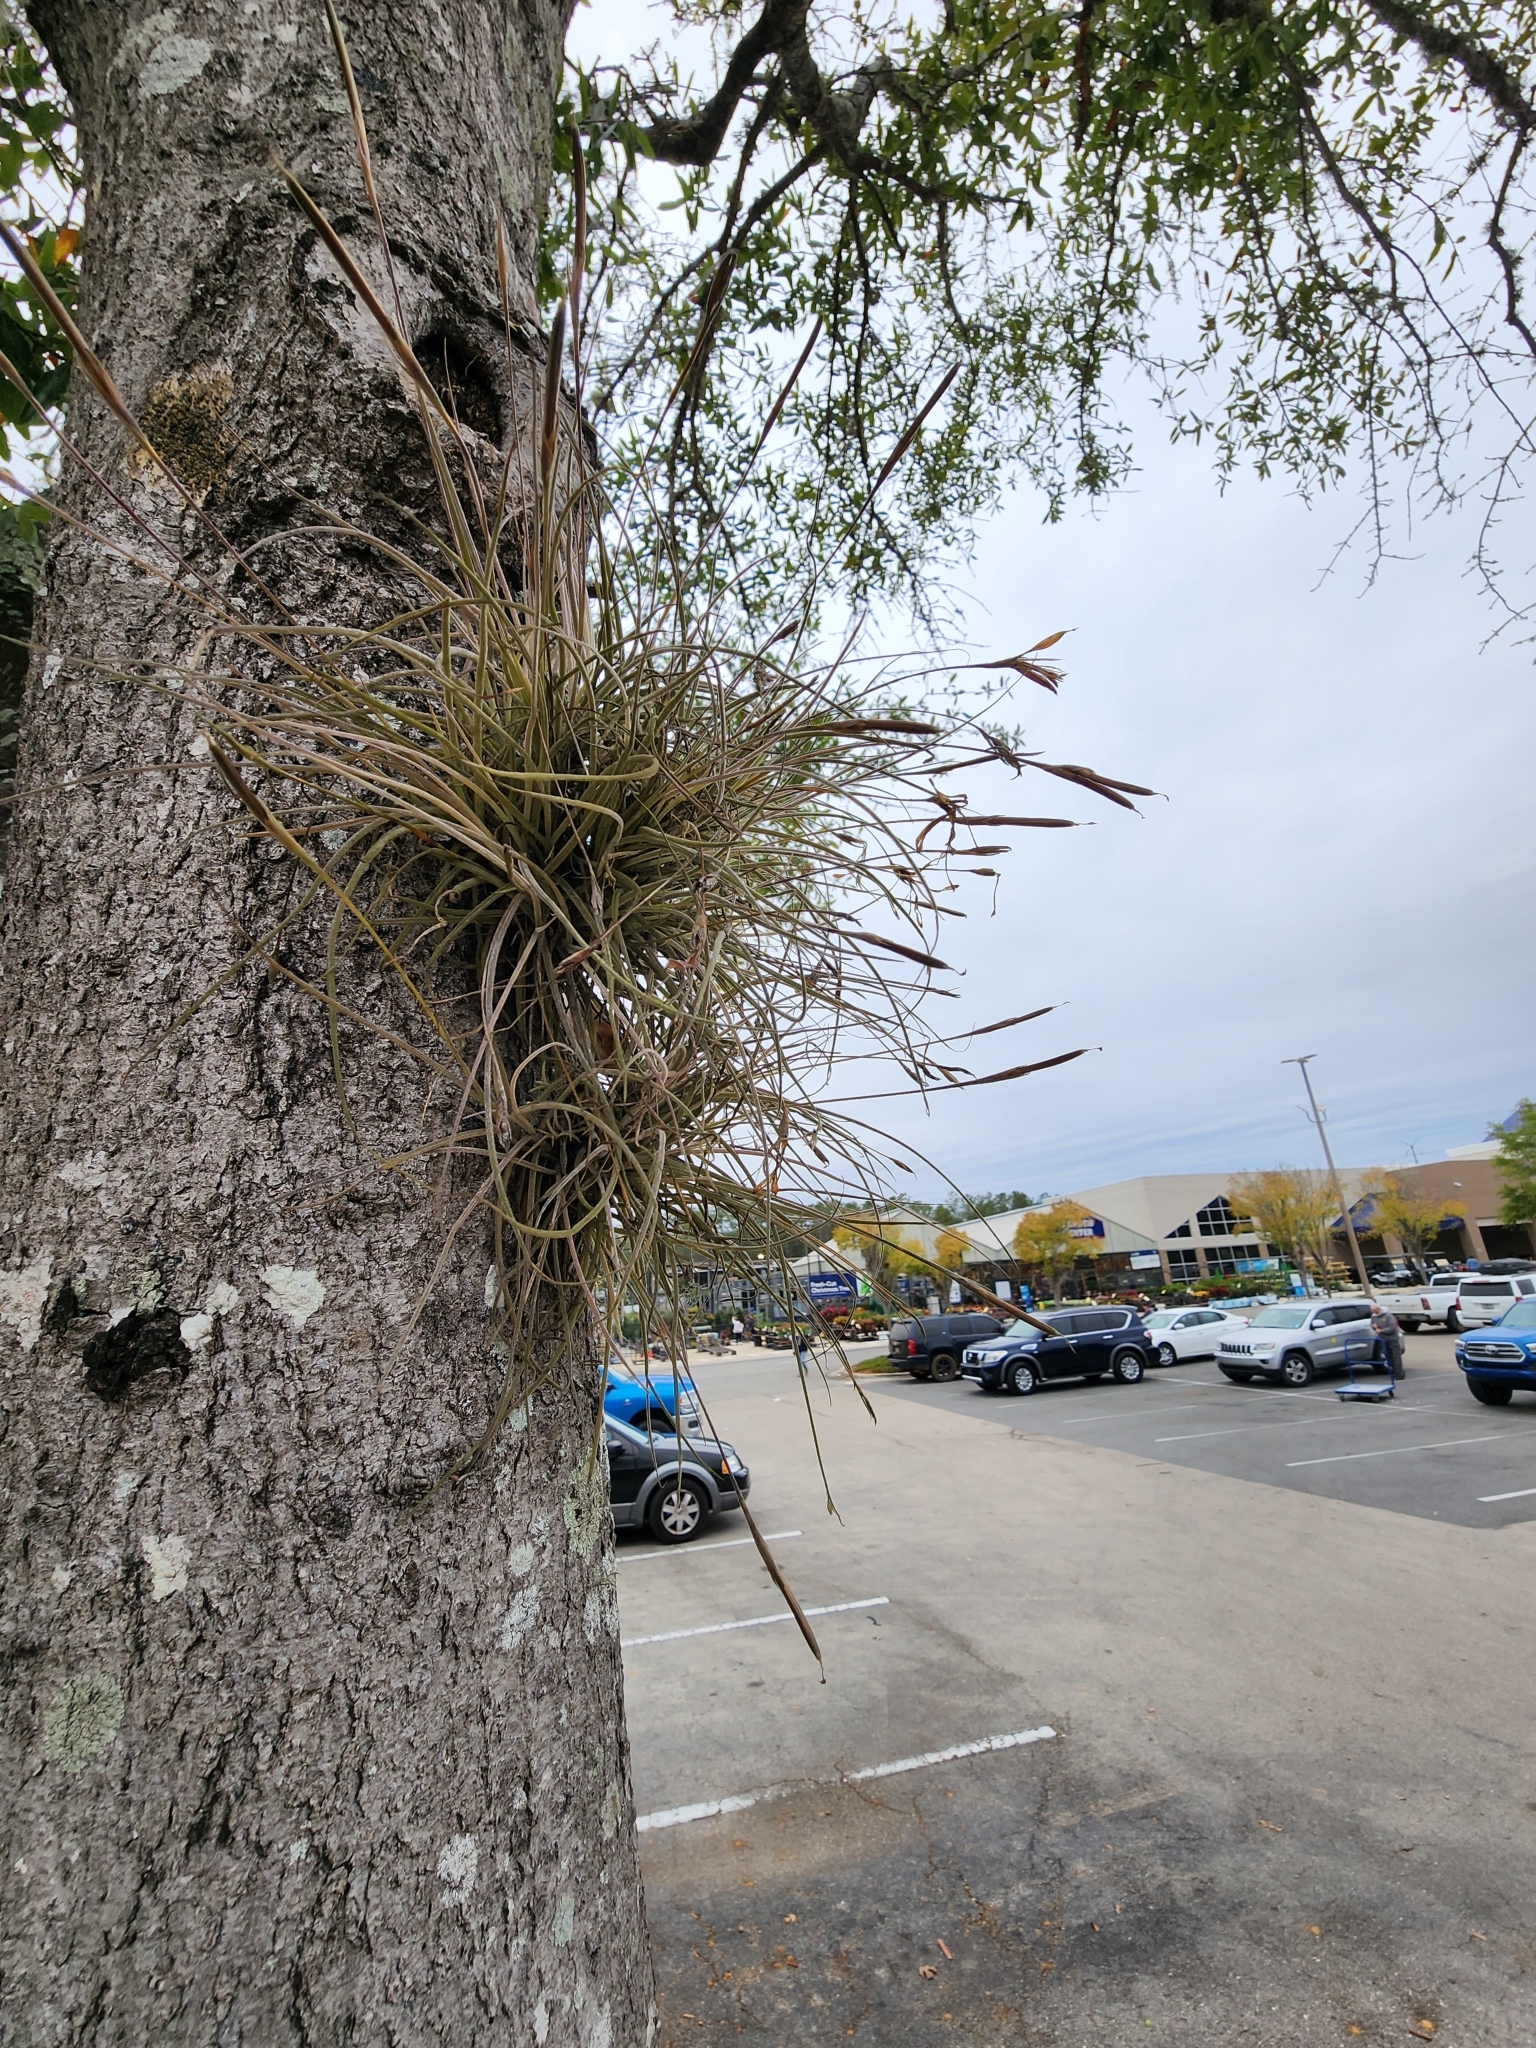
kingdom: Plantae
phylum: Tracheophyta
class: Liliopsida
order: Poales
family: Bromeliaceae
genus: Tillandsia
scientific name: Tillandsia recurvata
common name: Small ballmoss
